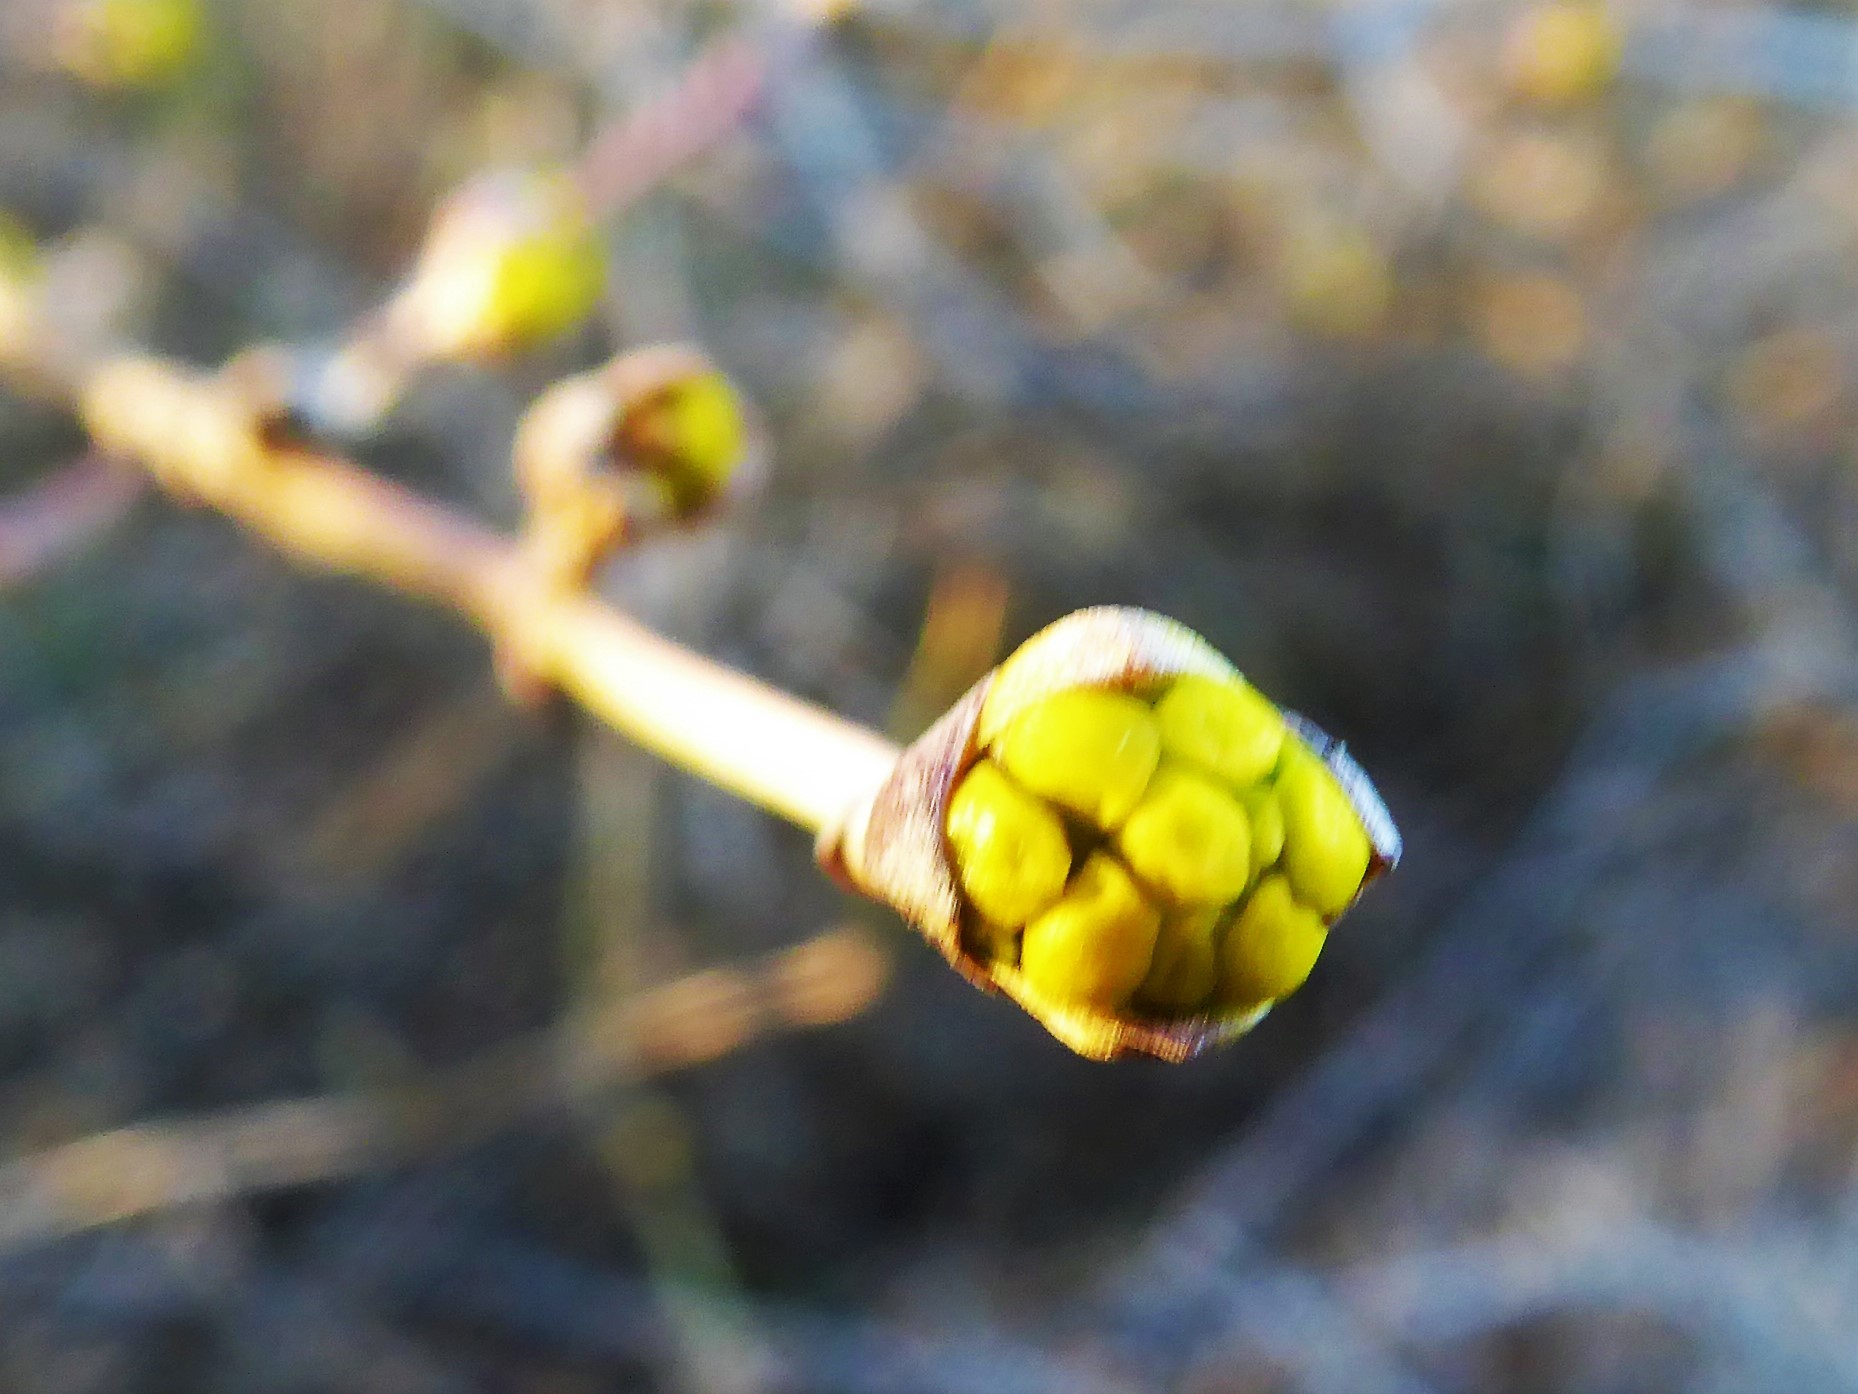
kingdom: Plantae
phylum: Tracheophyta
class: Magnoliopsida
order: Cornales
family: Cornaceae
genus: Cornus
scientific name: Cornus mas
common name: Cornelian-cherry
